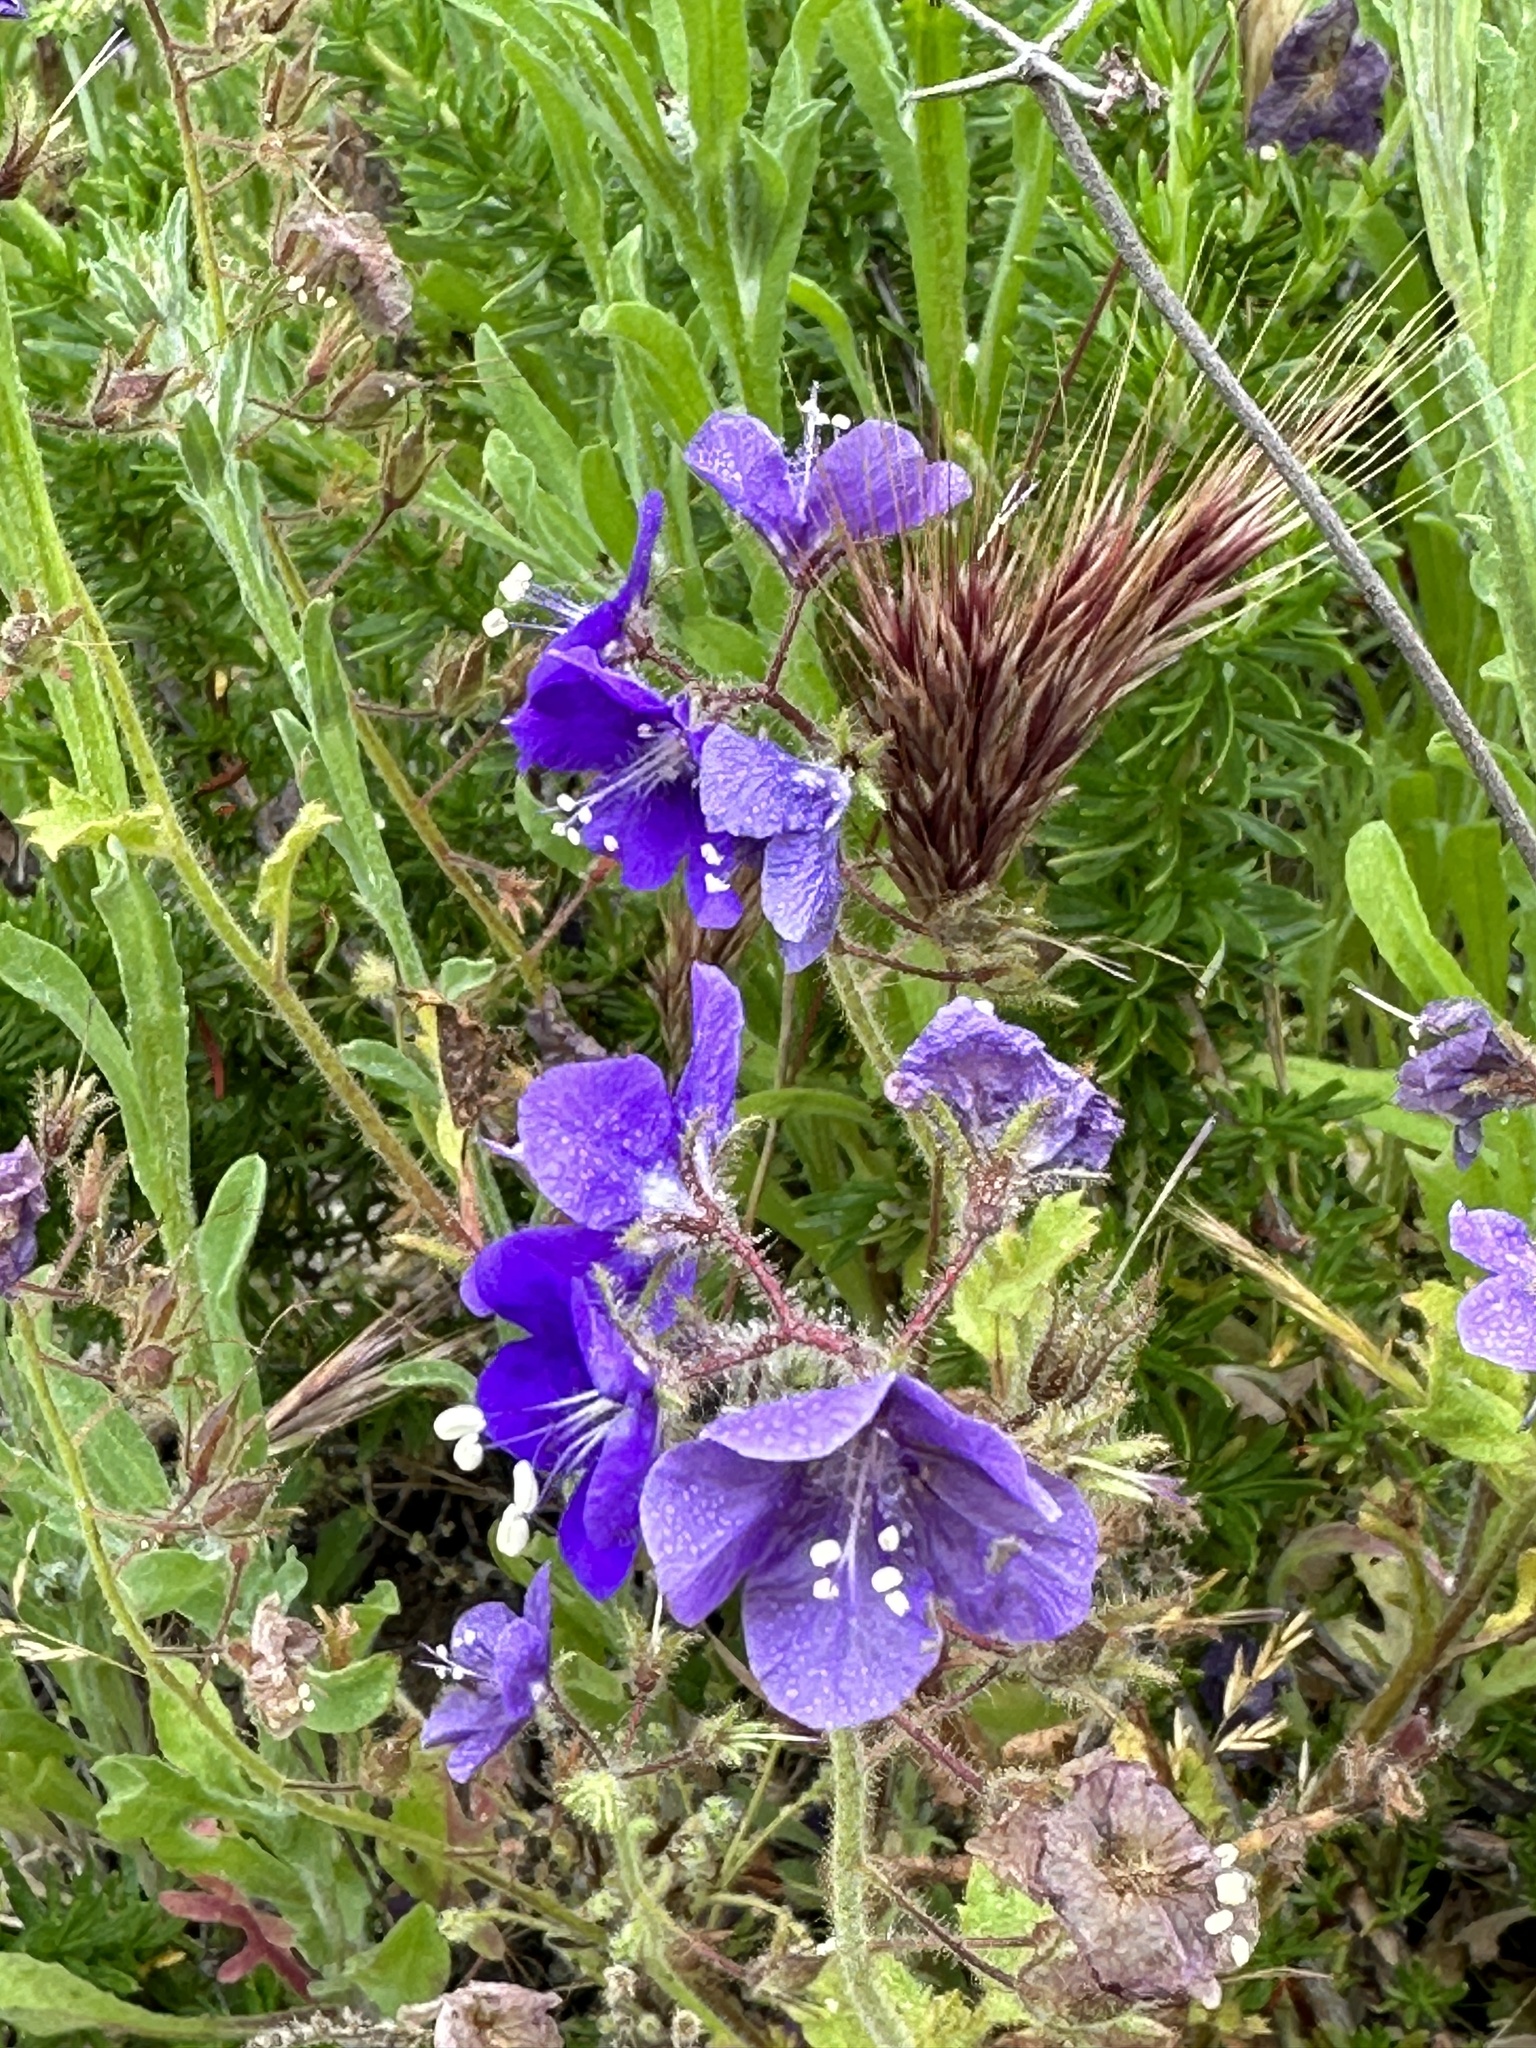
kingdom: Plantae
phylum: Tracheophyta
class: Magnoliopsida
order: Boraginales
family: Hydrophyllaceae
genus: Phacelia
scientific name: Phacelia parryi
